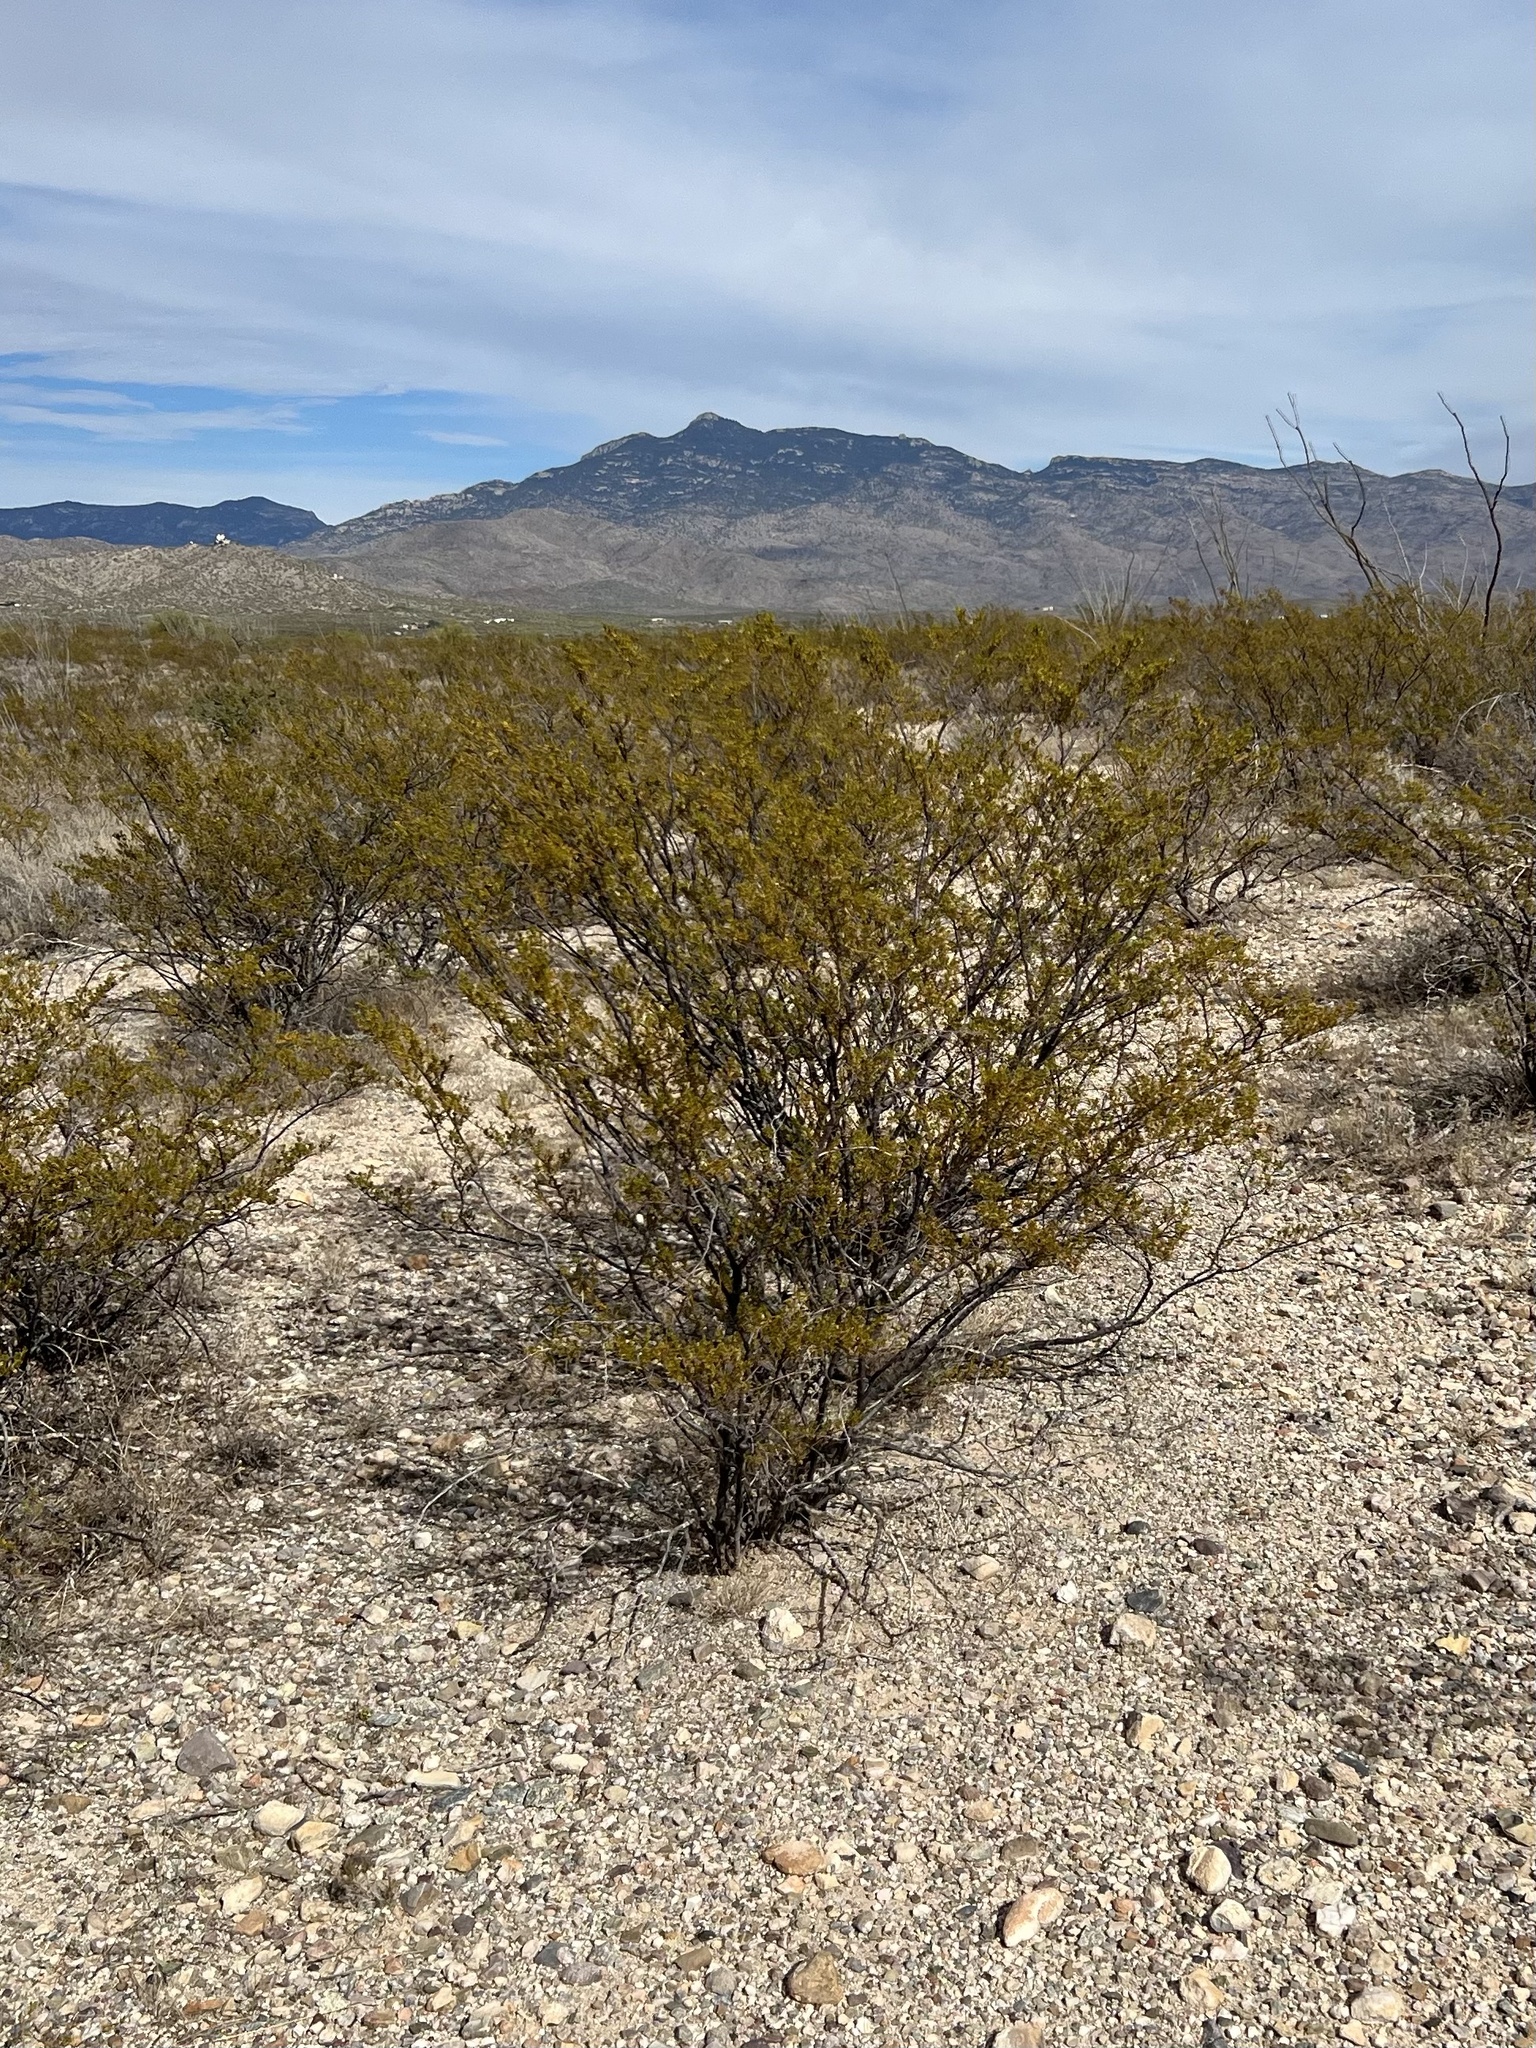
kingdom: Plantae
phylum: Tracheophyta
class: Magnoliopsida
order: Zygophyllales
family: Zygophyllaceae
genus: Larrea
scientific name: Larrea tridentata
